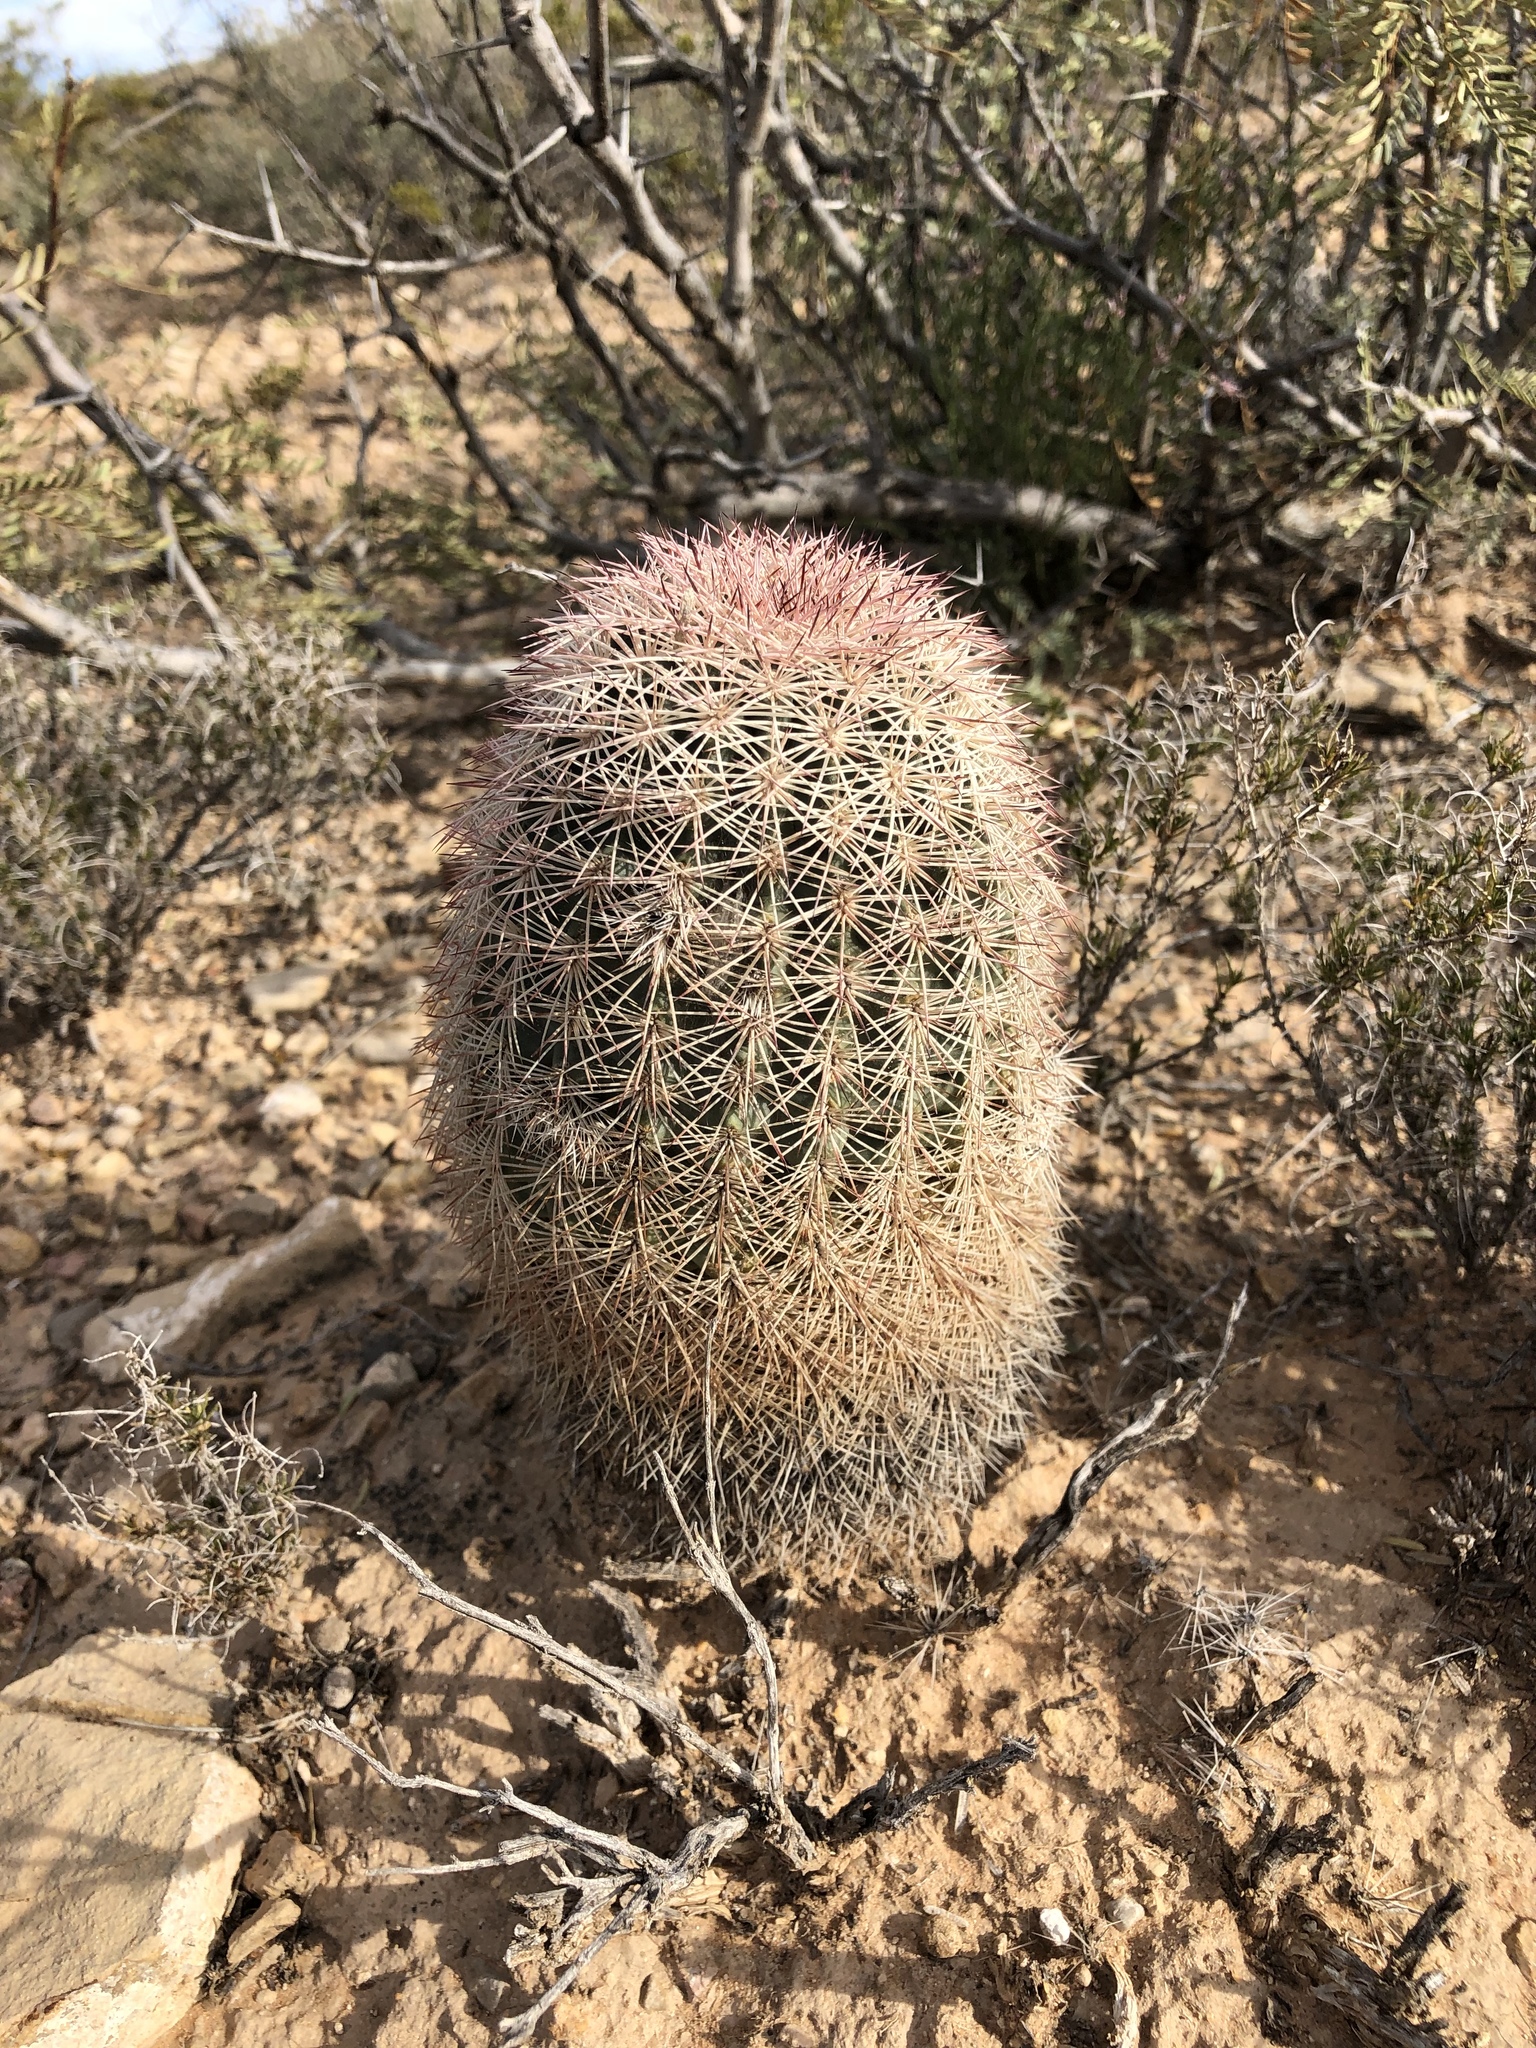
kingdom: Plantae
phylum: Tracheophyta
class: Magnoliopsida
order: Caryophyllales
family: Cactaceae
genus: Echinocereus
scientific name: Echinocereus dasyacanthus
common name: Spiny hedgehog cactus
